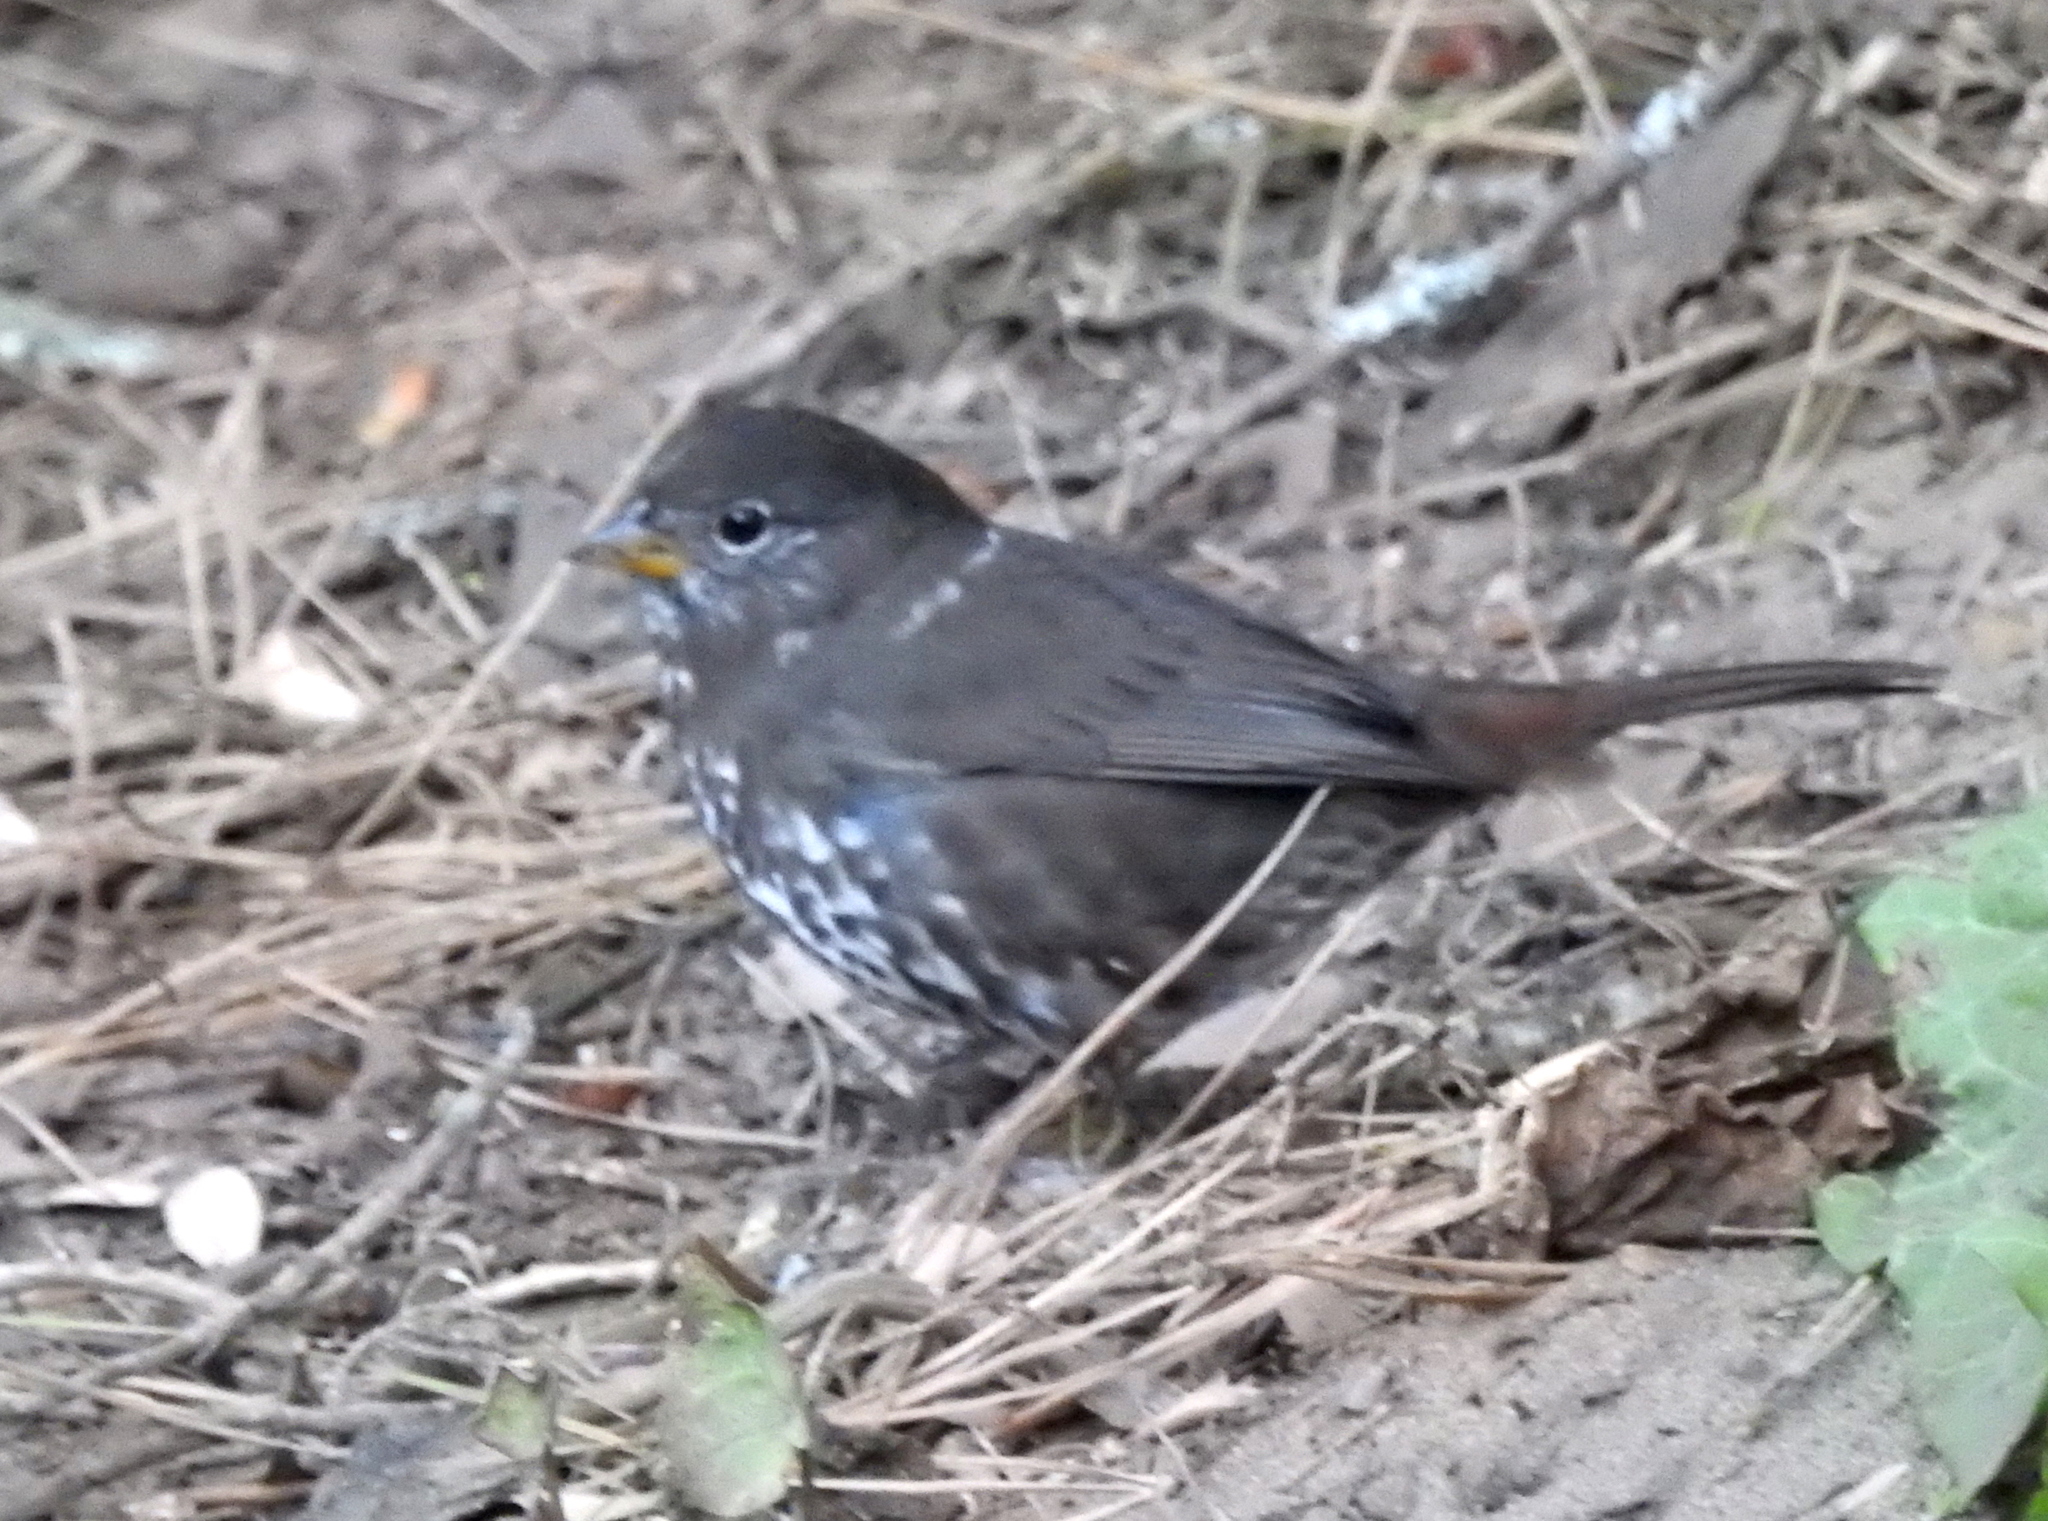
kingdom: Animalia
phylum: Chordata
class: Aves
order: Passeriformes
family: Passerellidae
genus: Passerella
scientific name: Passerella iliaca
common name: Fox sparrow
